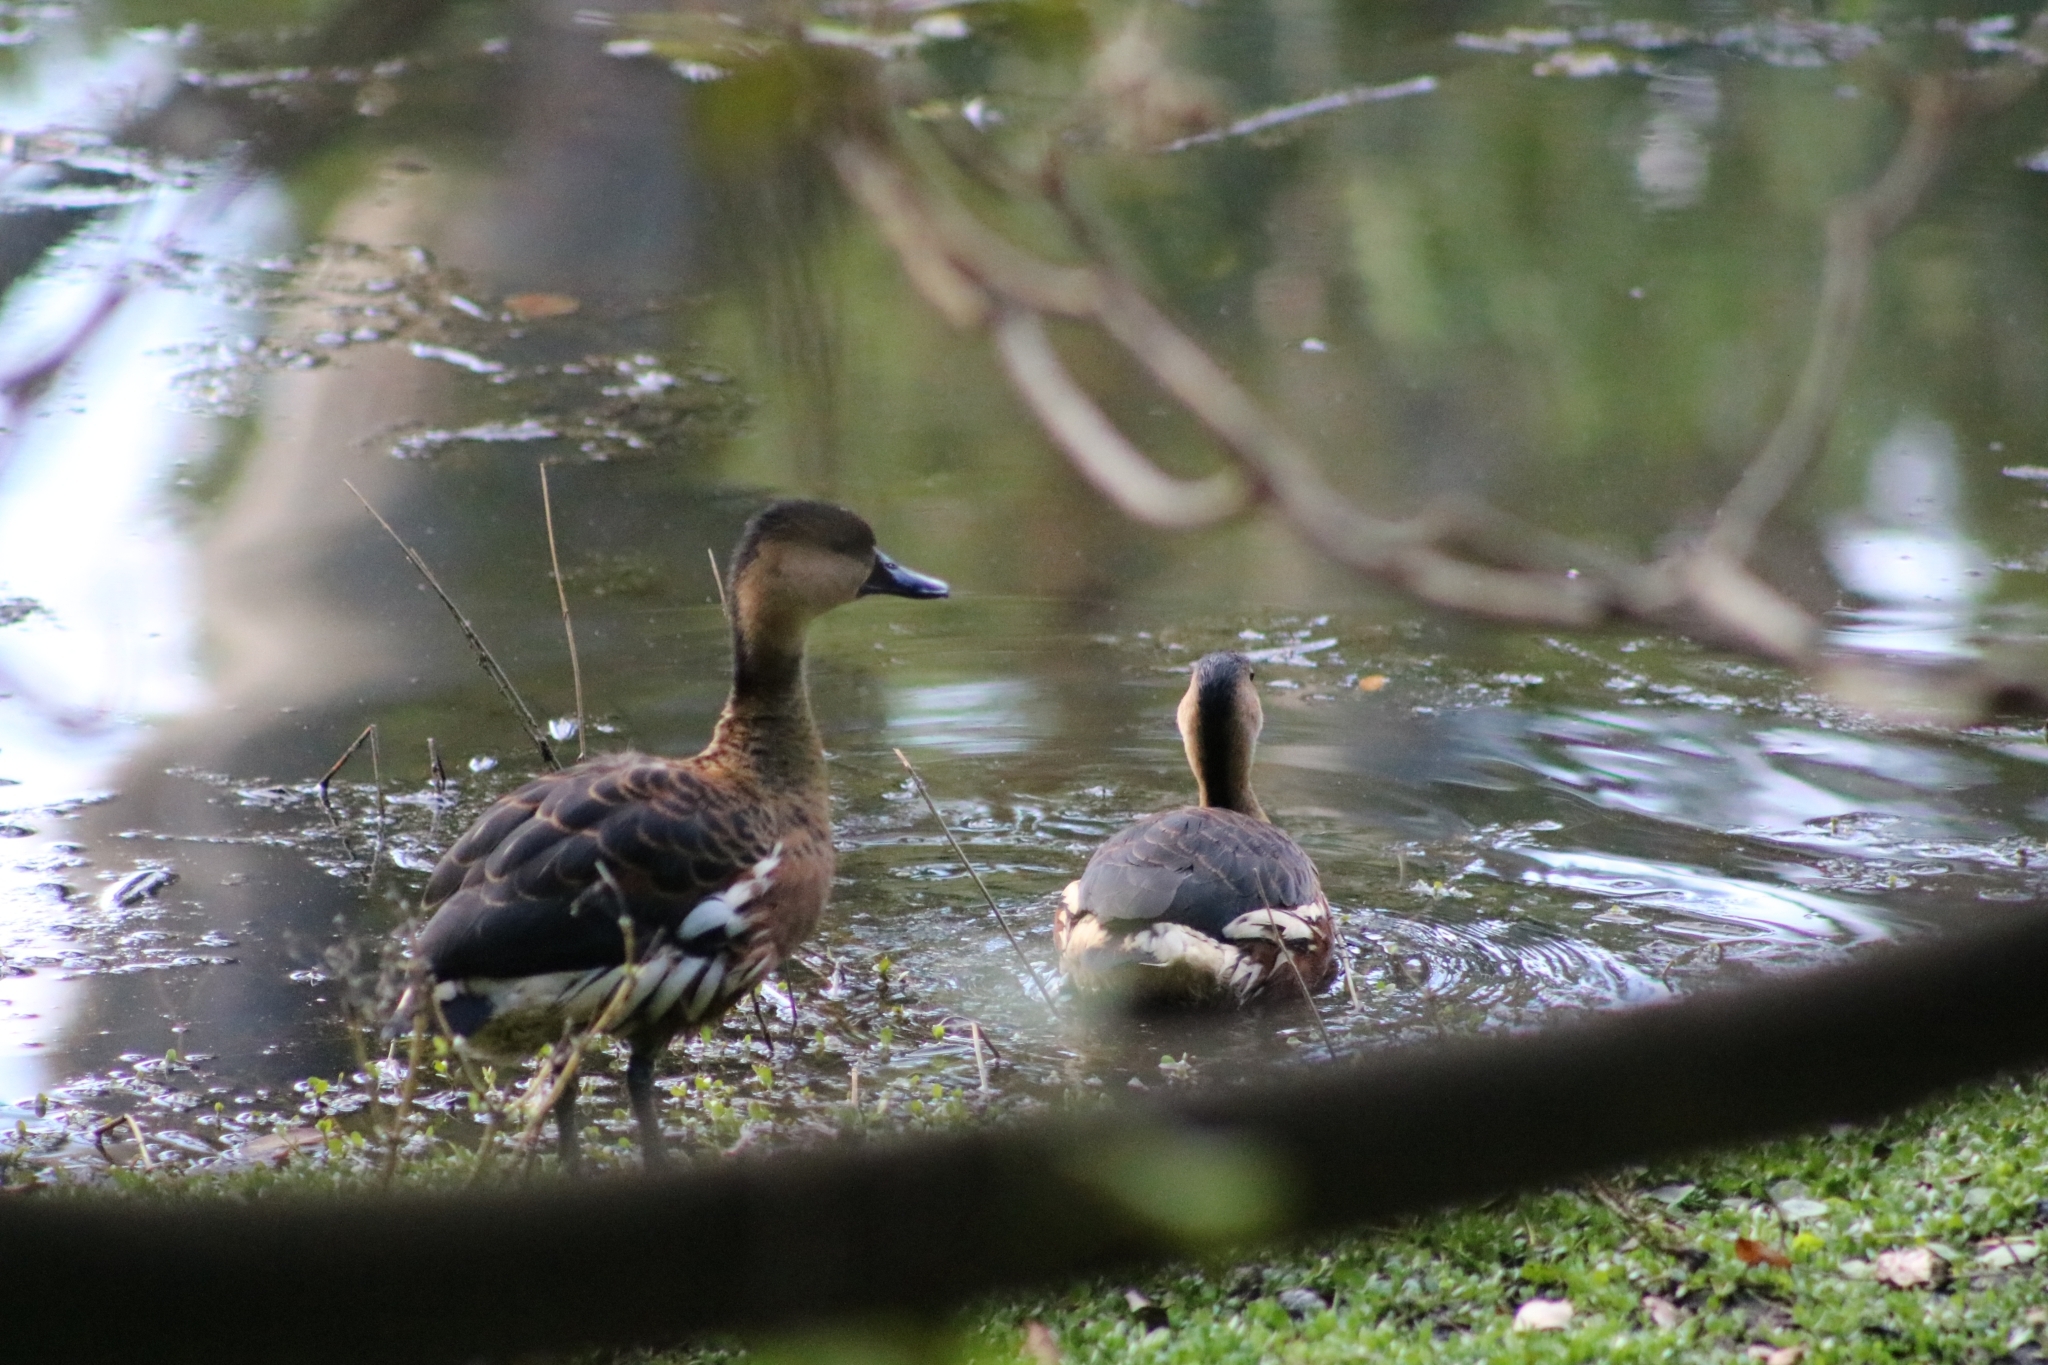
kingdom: Animalia
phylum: Chordata
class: Aves
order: Anseriformes
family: Anatidae
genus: Dendrocygna
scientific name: Dendrocygna arcuata
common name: Wandering whistling-duck
